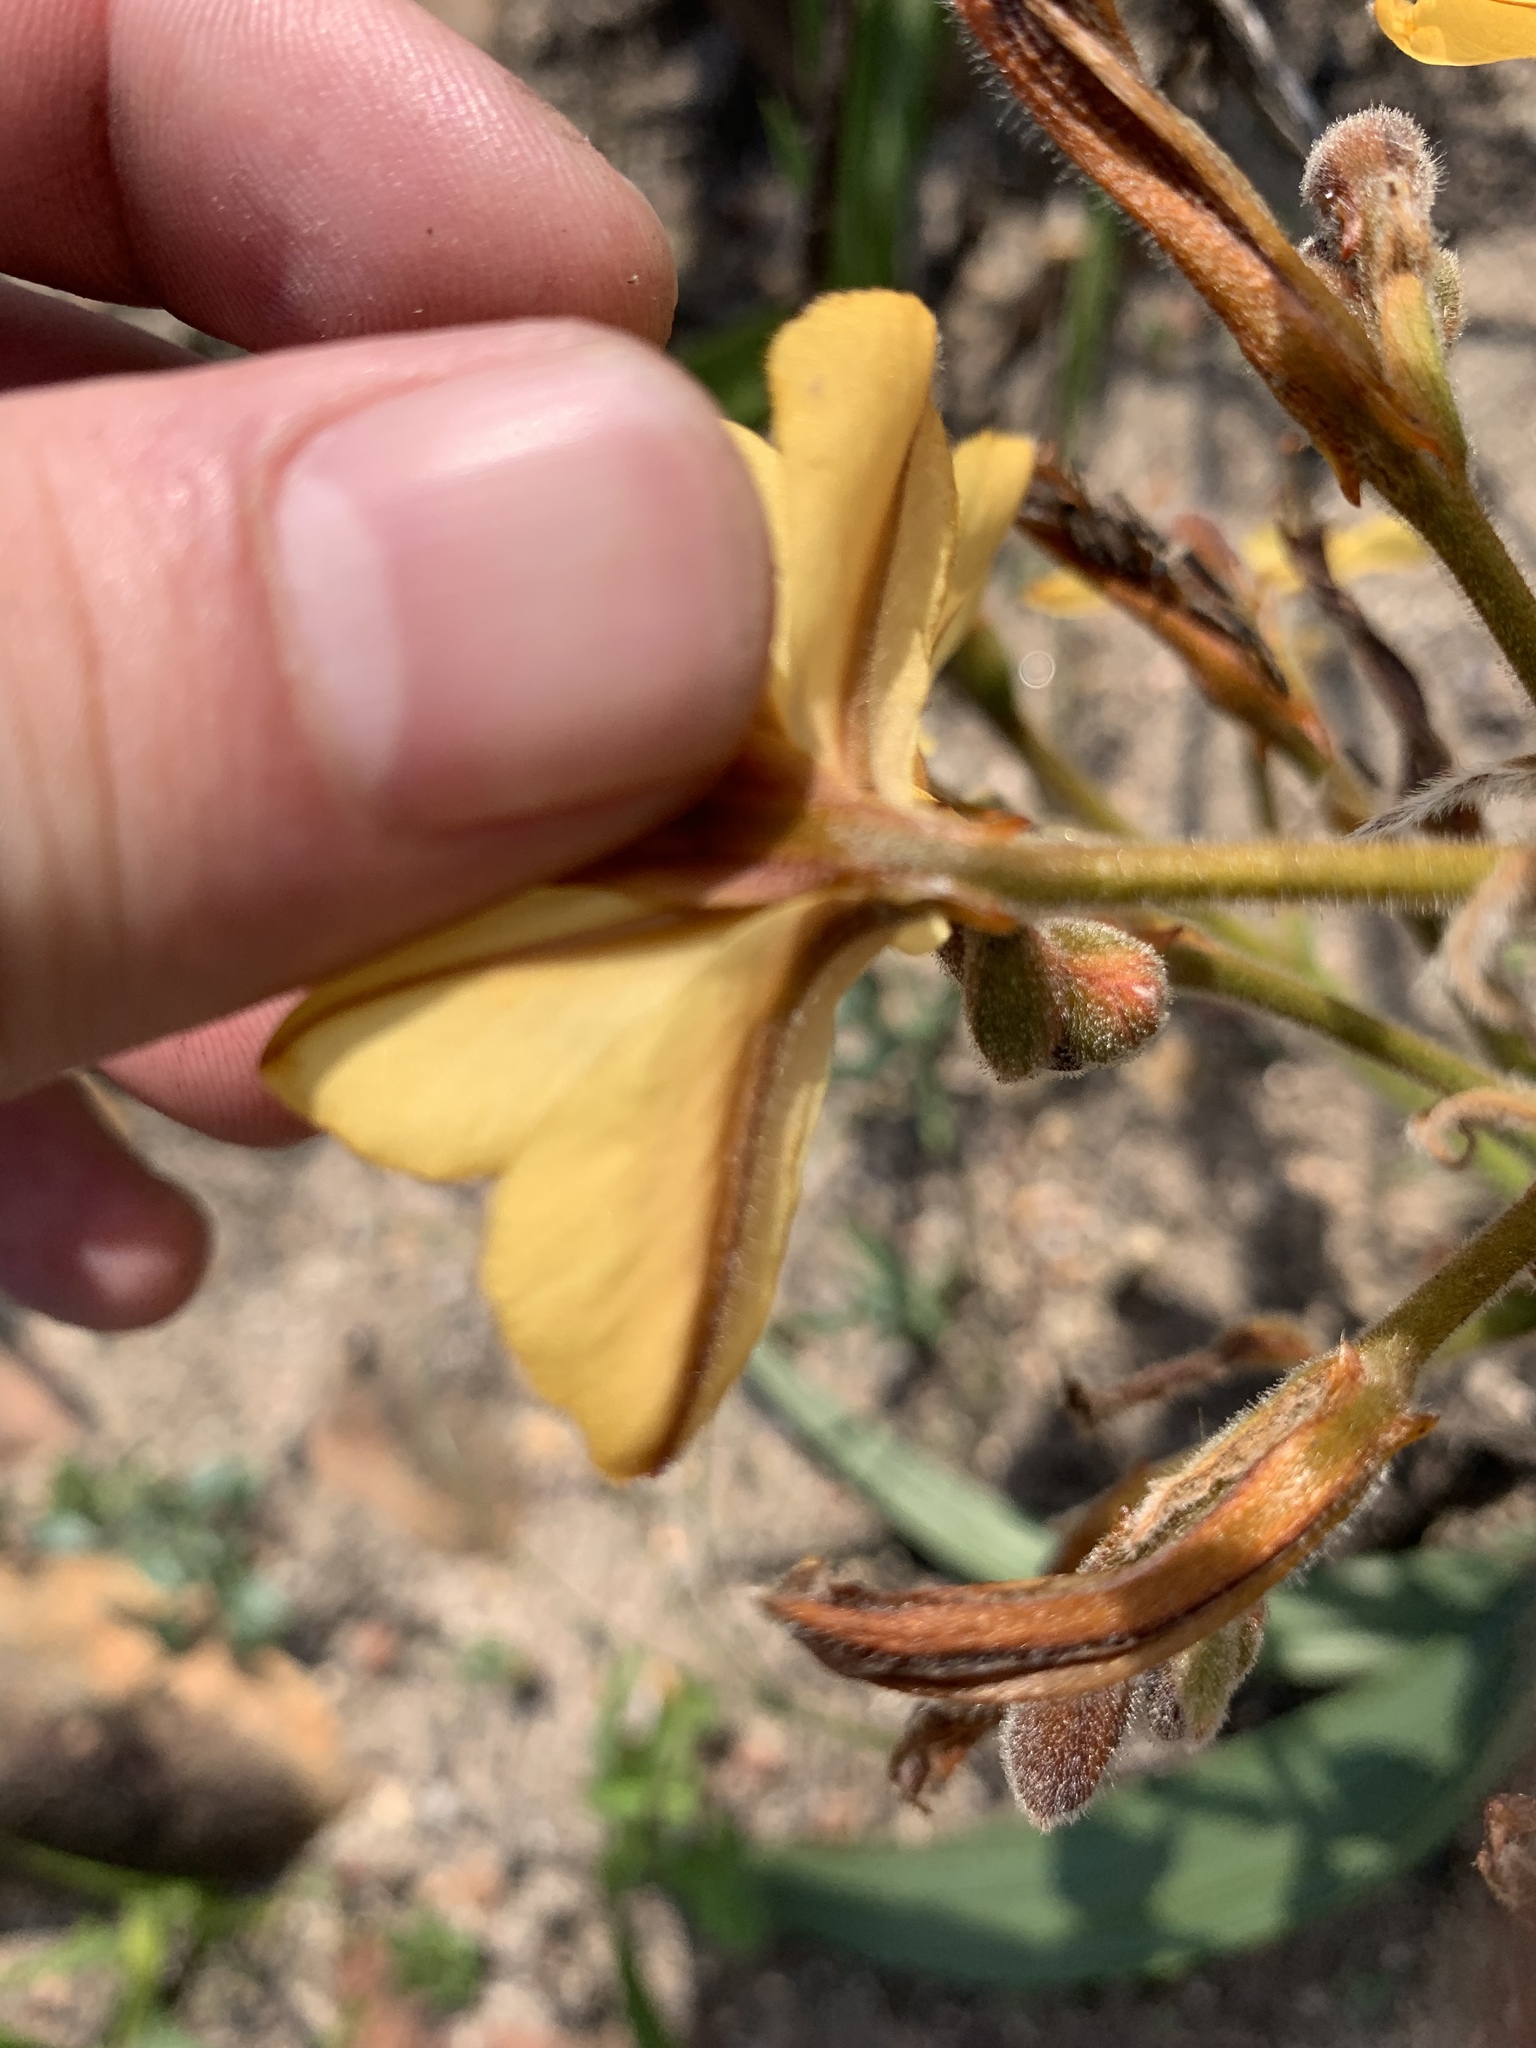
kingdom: Plantae
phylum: Tracheophyta
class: Liliopsida
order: Commelinales
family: Haemodoraceae
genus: Wachendorfia
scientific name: Wachendorfia paniculata
